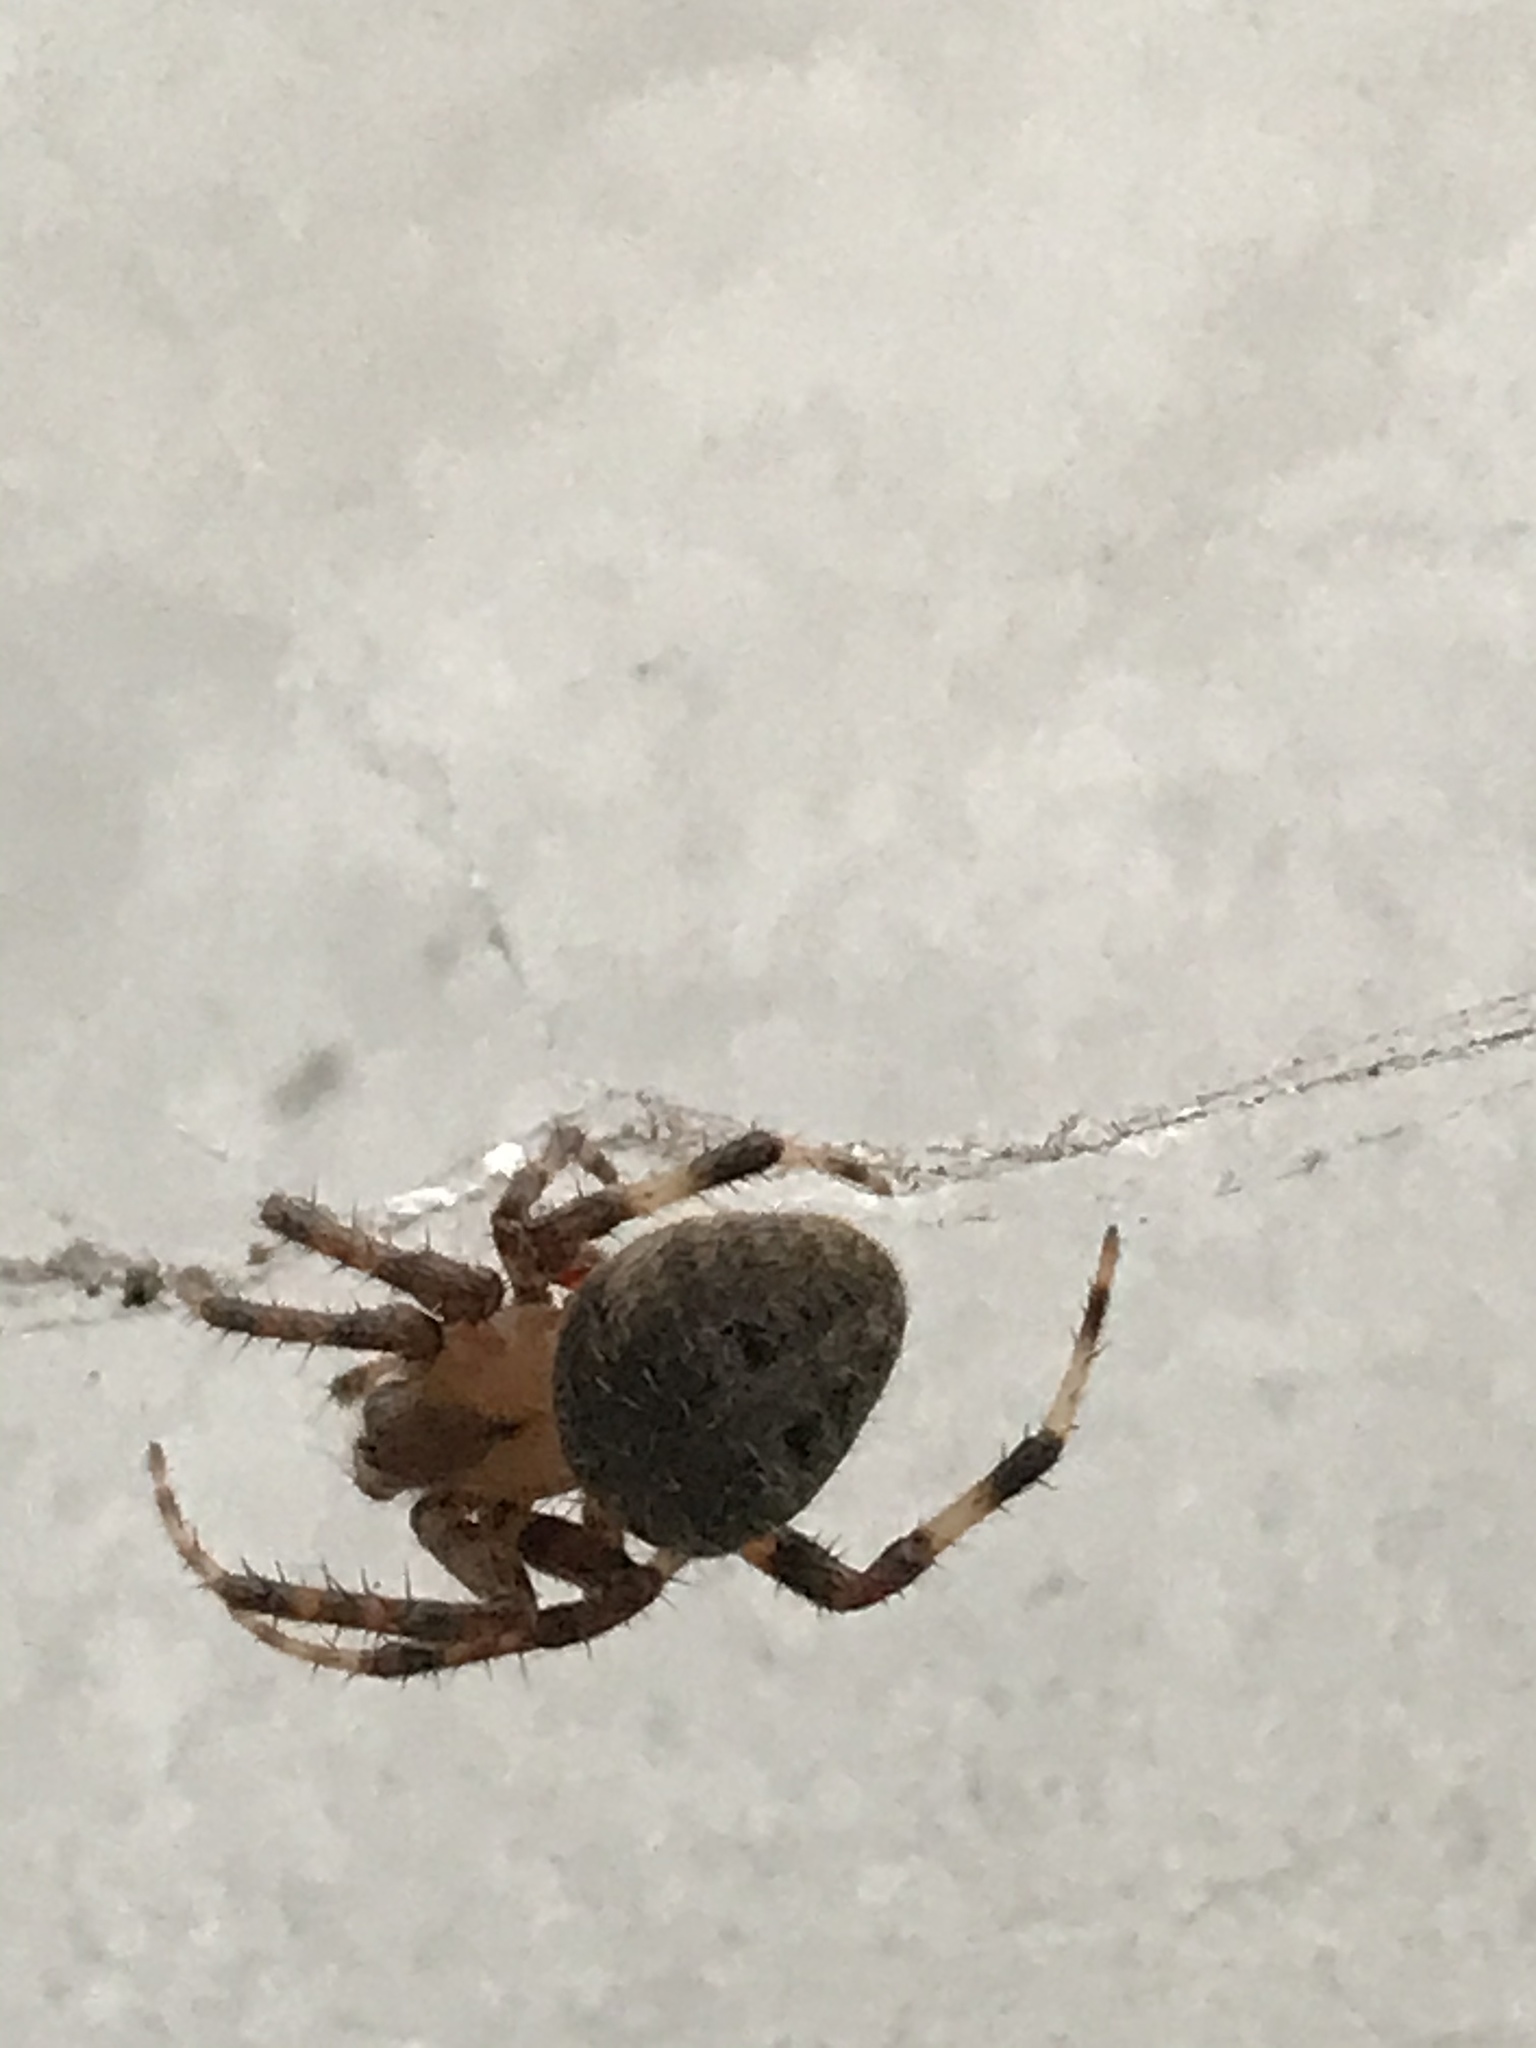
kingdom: Animalia
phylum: Arthropoda
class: Arachnida
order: Araneae
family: Araneidae
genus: Neoscona
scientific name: Neoscona crucifera
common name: Spotted orbweaver
